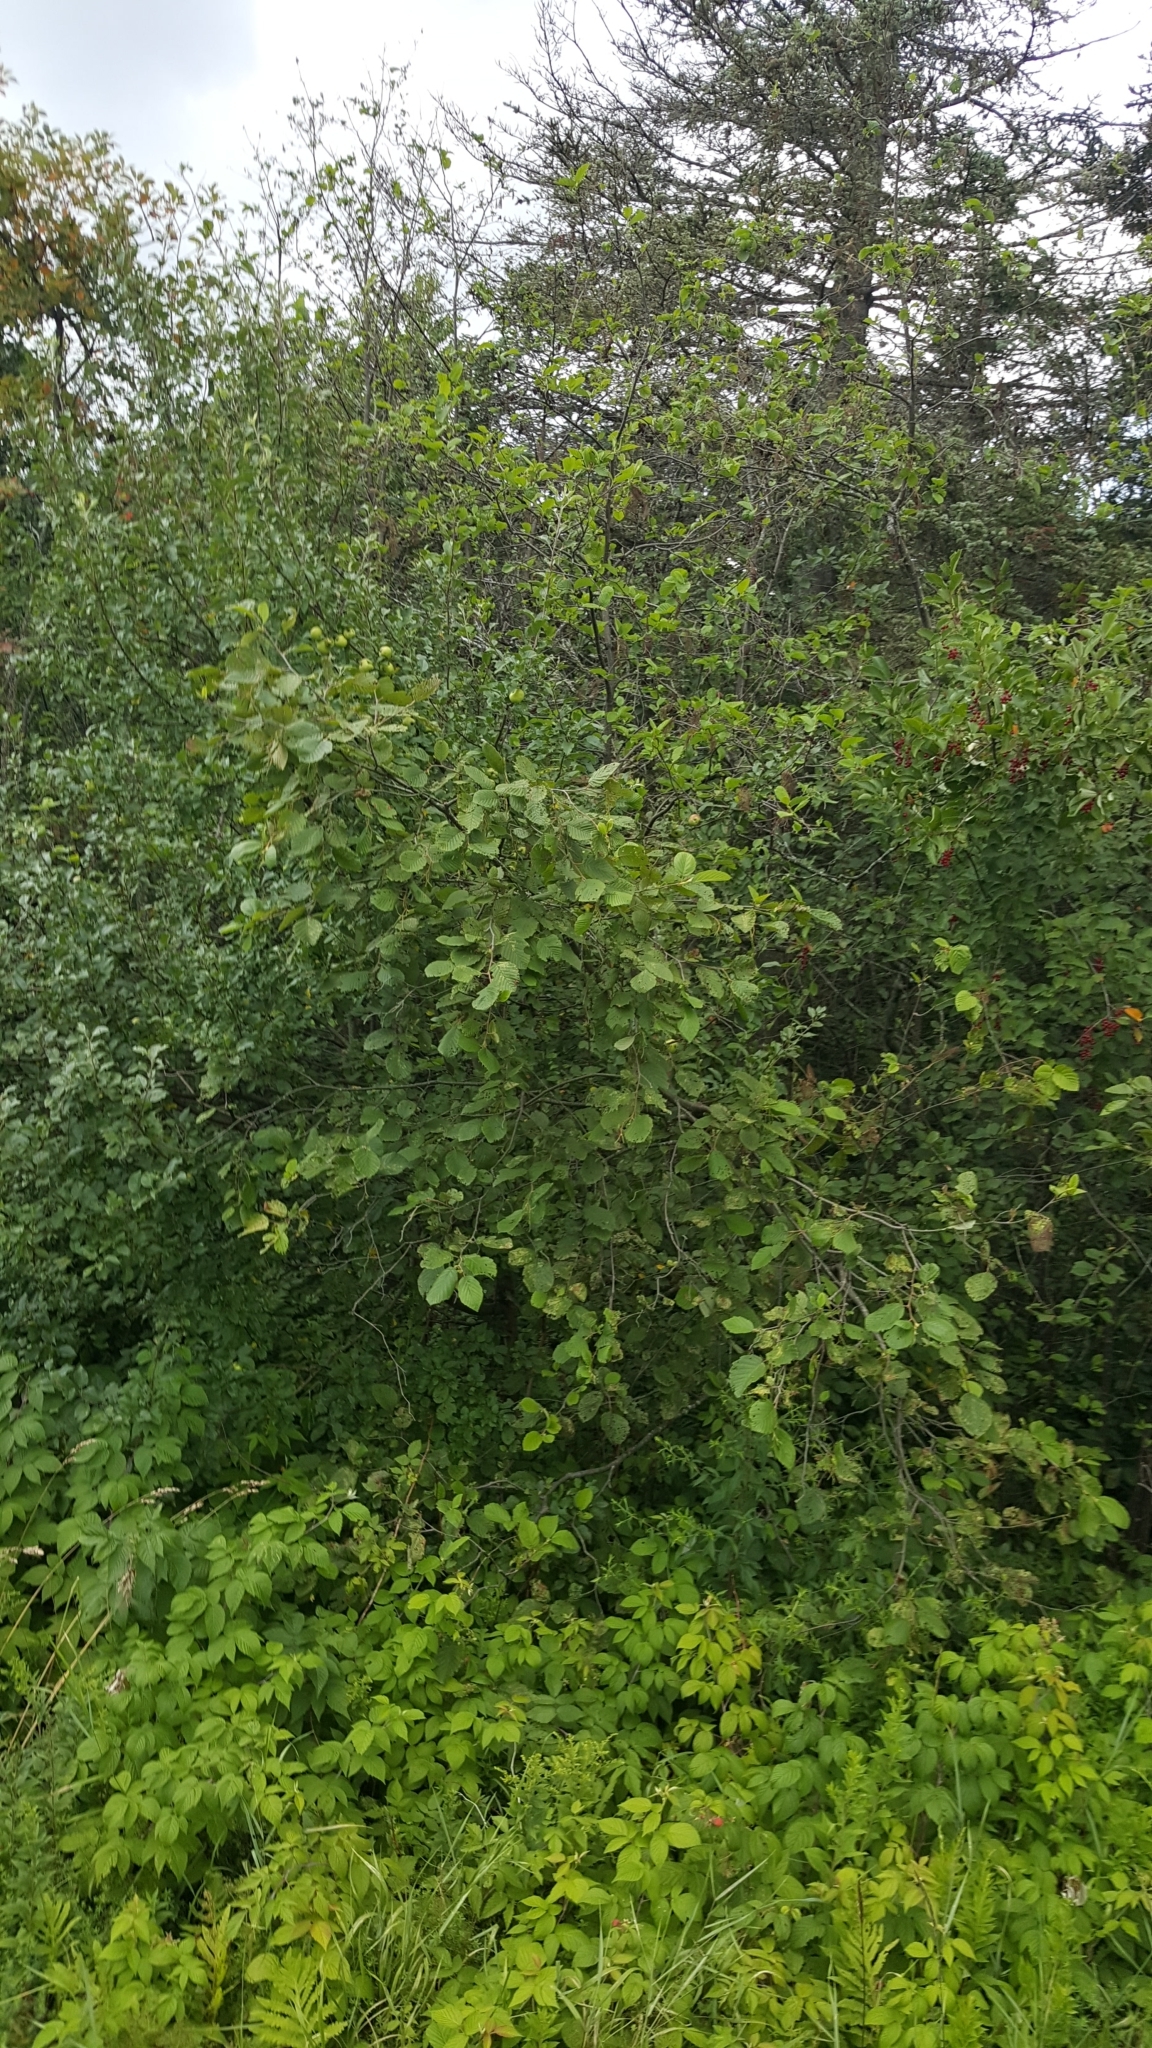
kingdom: Plantae
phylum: Tracheophyta
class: Magnoliopsida
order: Fagales
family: Betulaceae
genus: Alnus
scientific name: Alnus incana
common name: Grey alder
